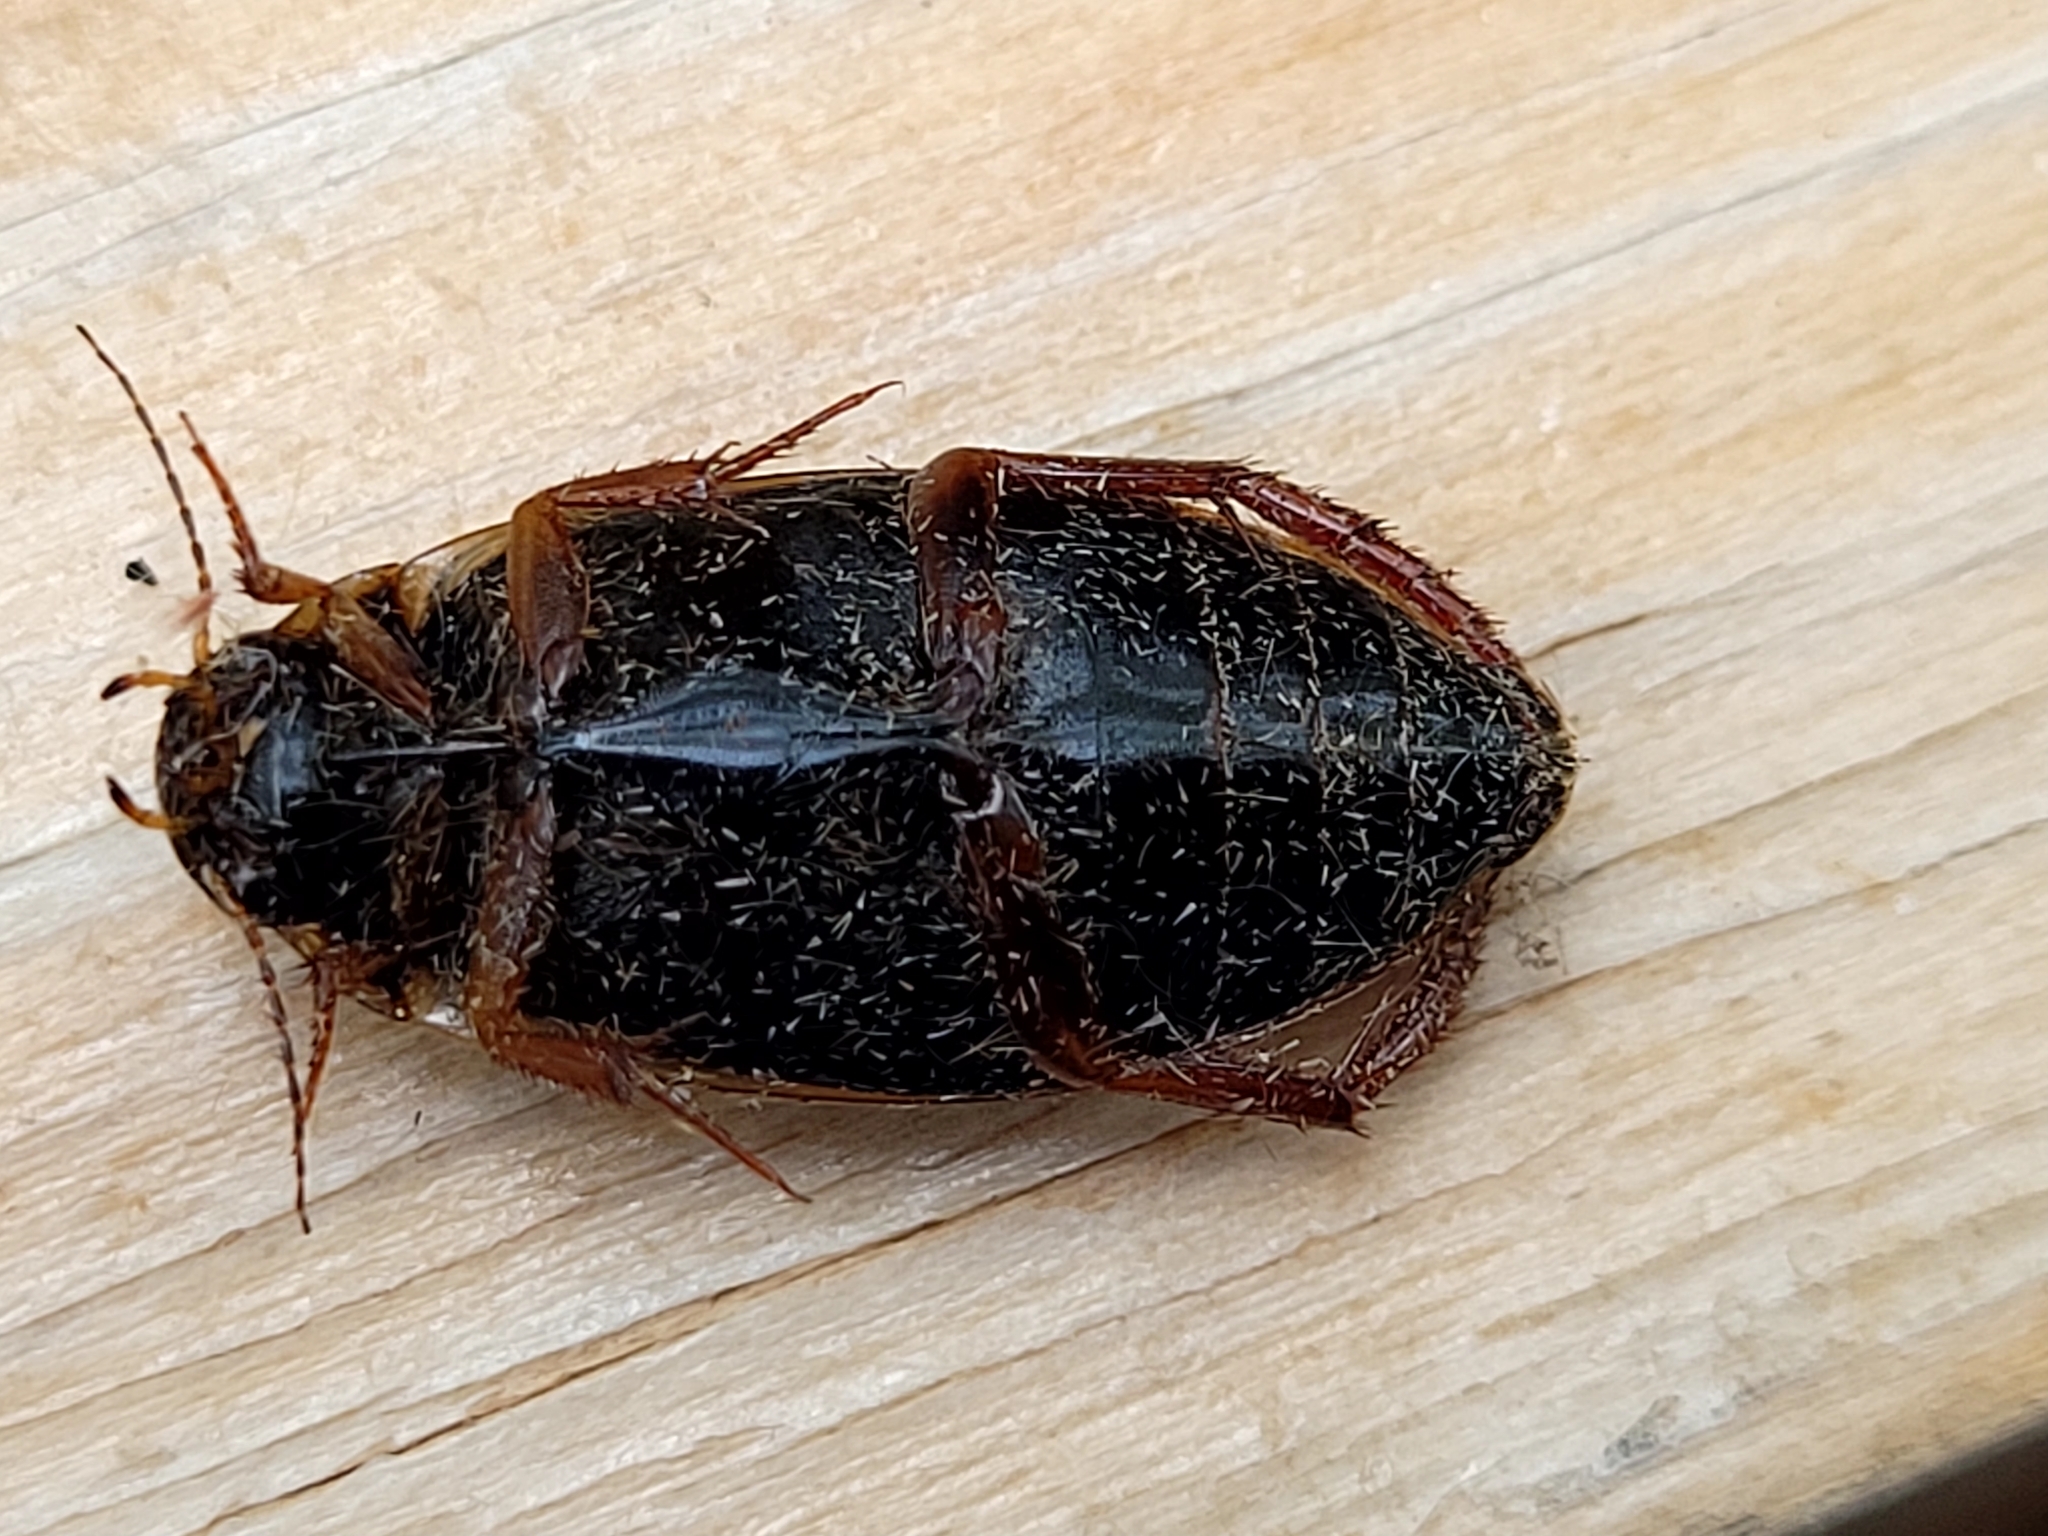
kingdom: Animalia
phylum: Arthropoda
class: Insecta
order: Coleoptera
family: Dytiscidae
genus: Colymbetes
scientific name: Colymbetes
